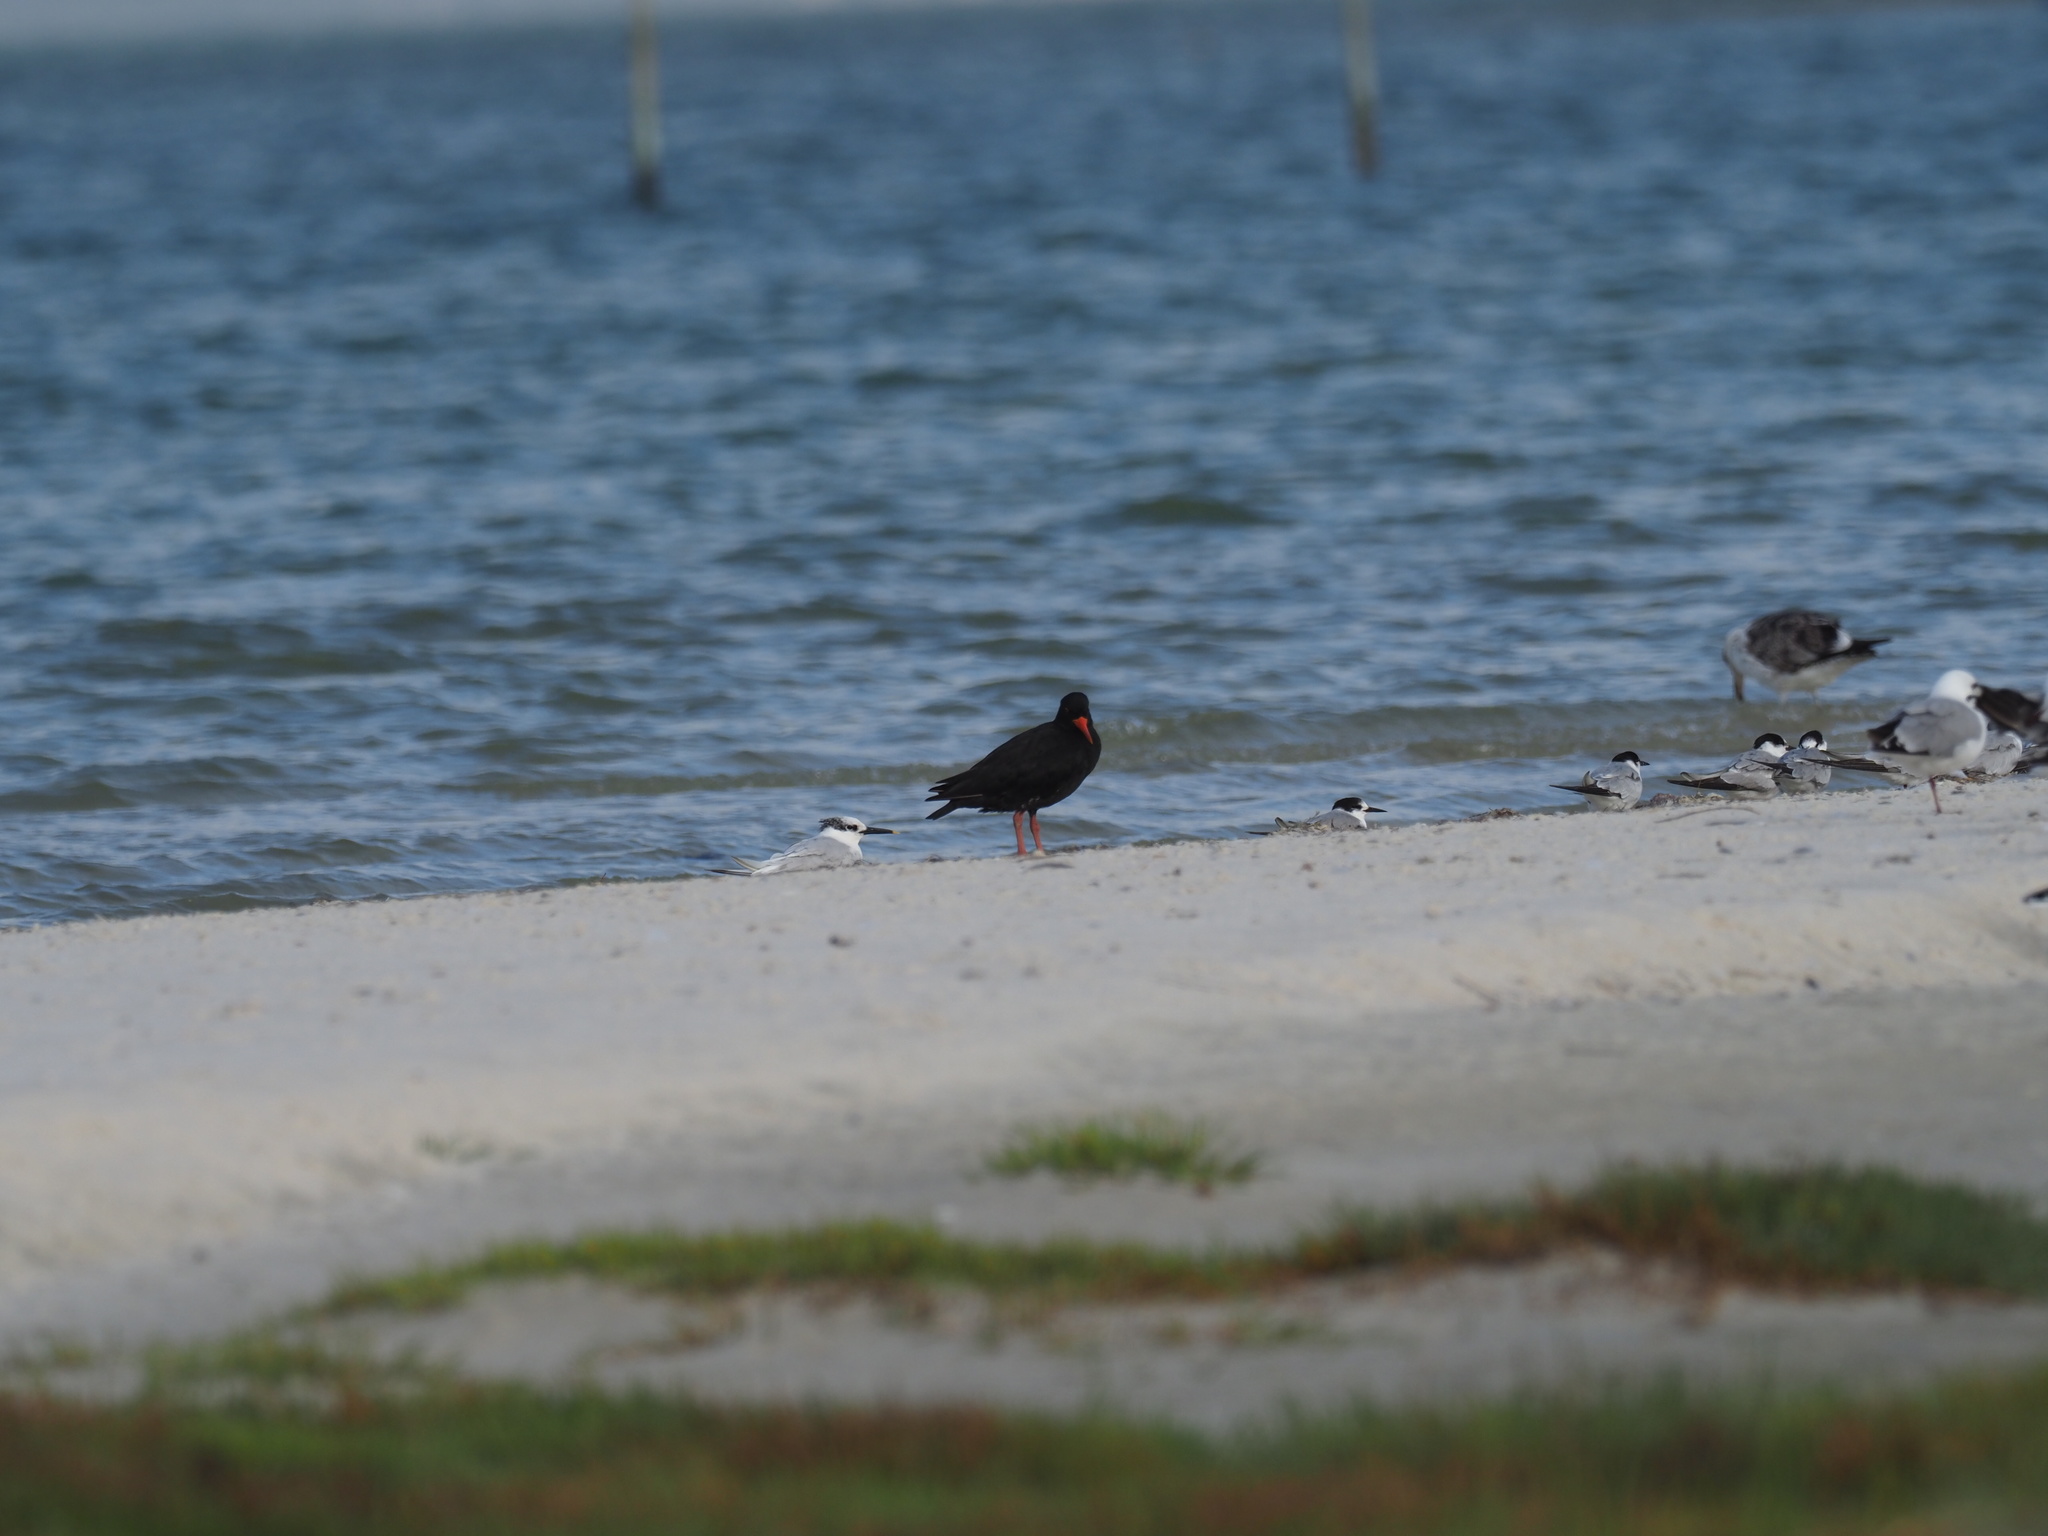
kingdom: Animalia
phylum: Chordata
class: Aves
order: Charadriiformes
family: Laridae
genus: Thalasseus
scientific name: Thalasseus sandvicensis
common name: Sandwich tern
